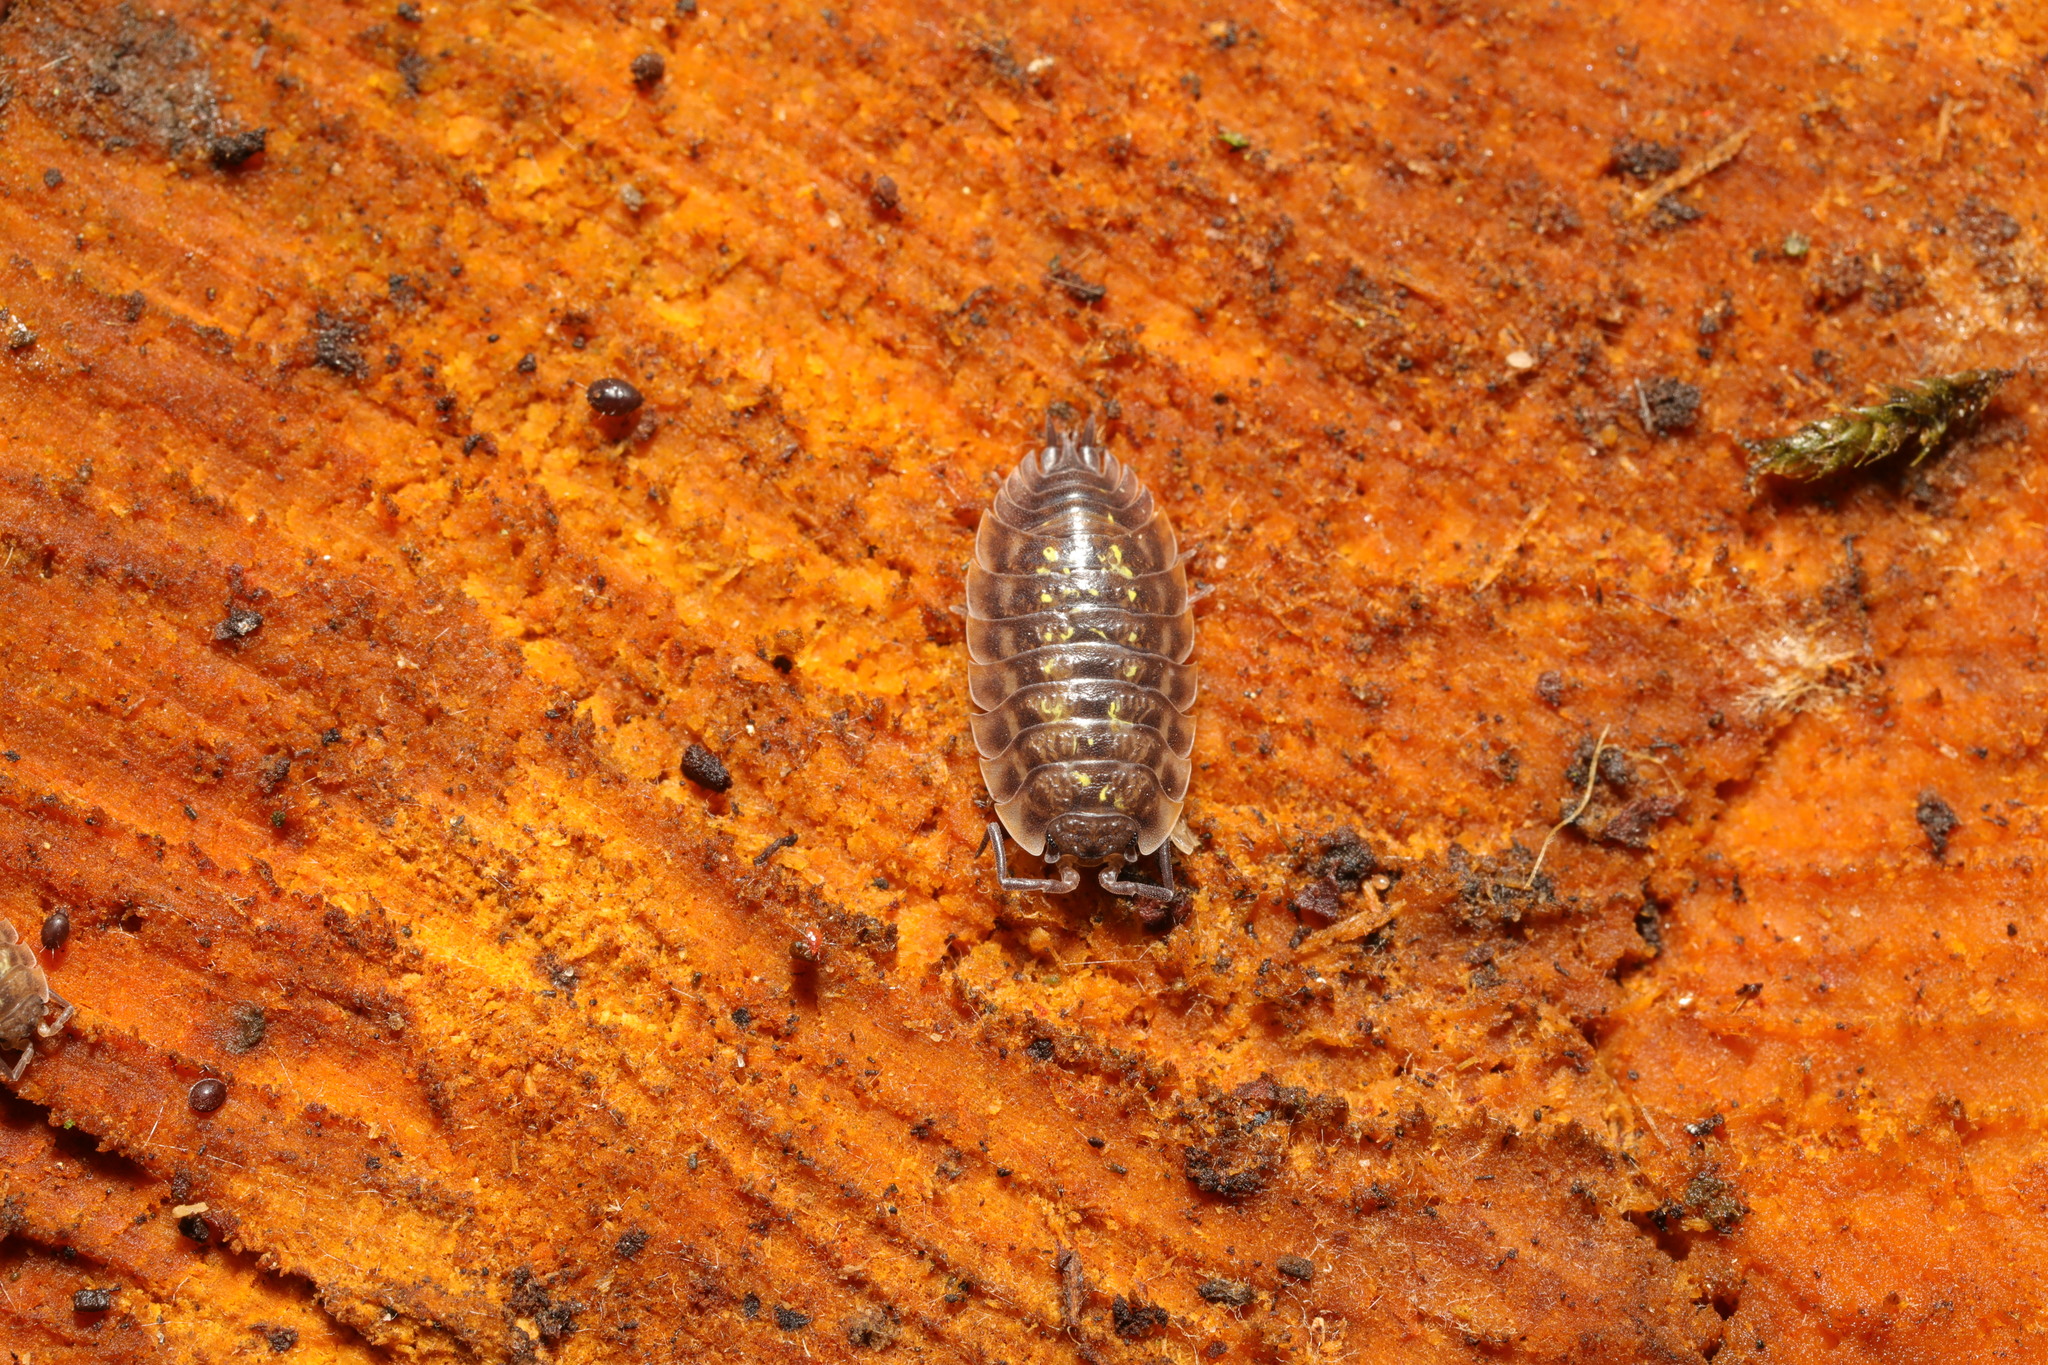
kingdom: Animalia
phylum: Arthropoda
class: Malacostraca
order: Isopoda
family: Oniscidae
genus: Oniscus
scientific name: Oniscus asellus
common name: Common shiny woodlouse
